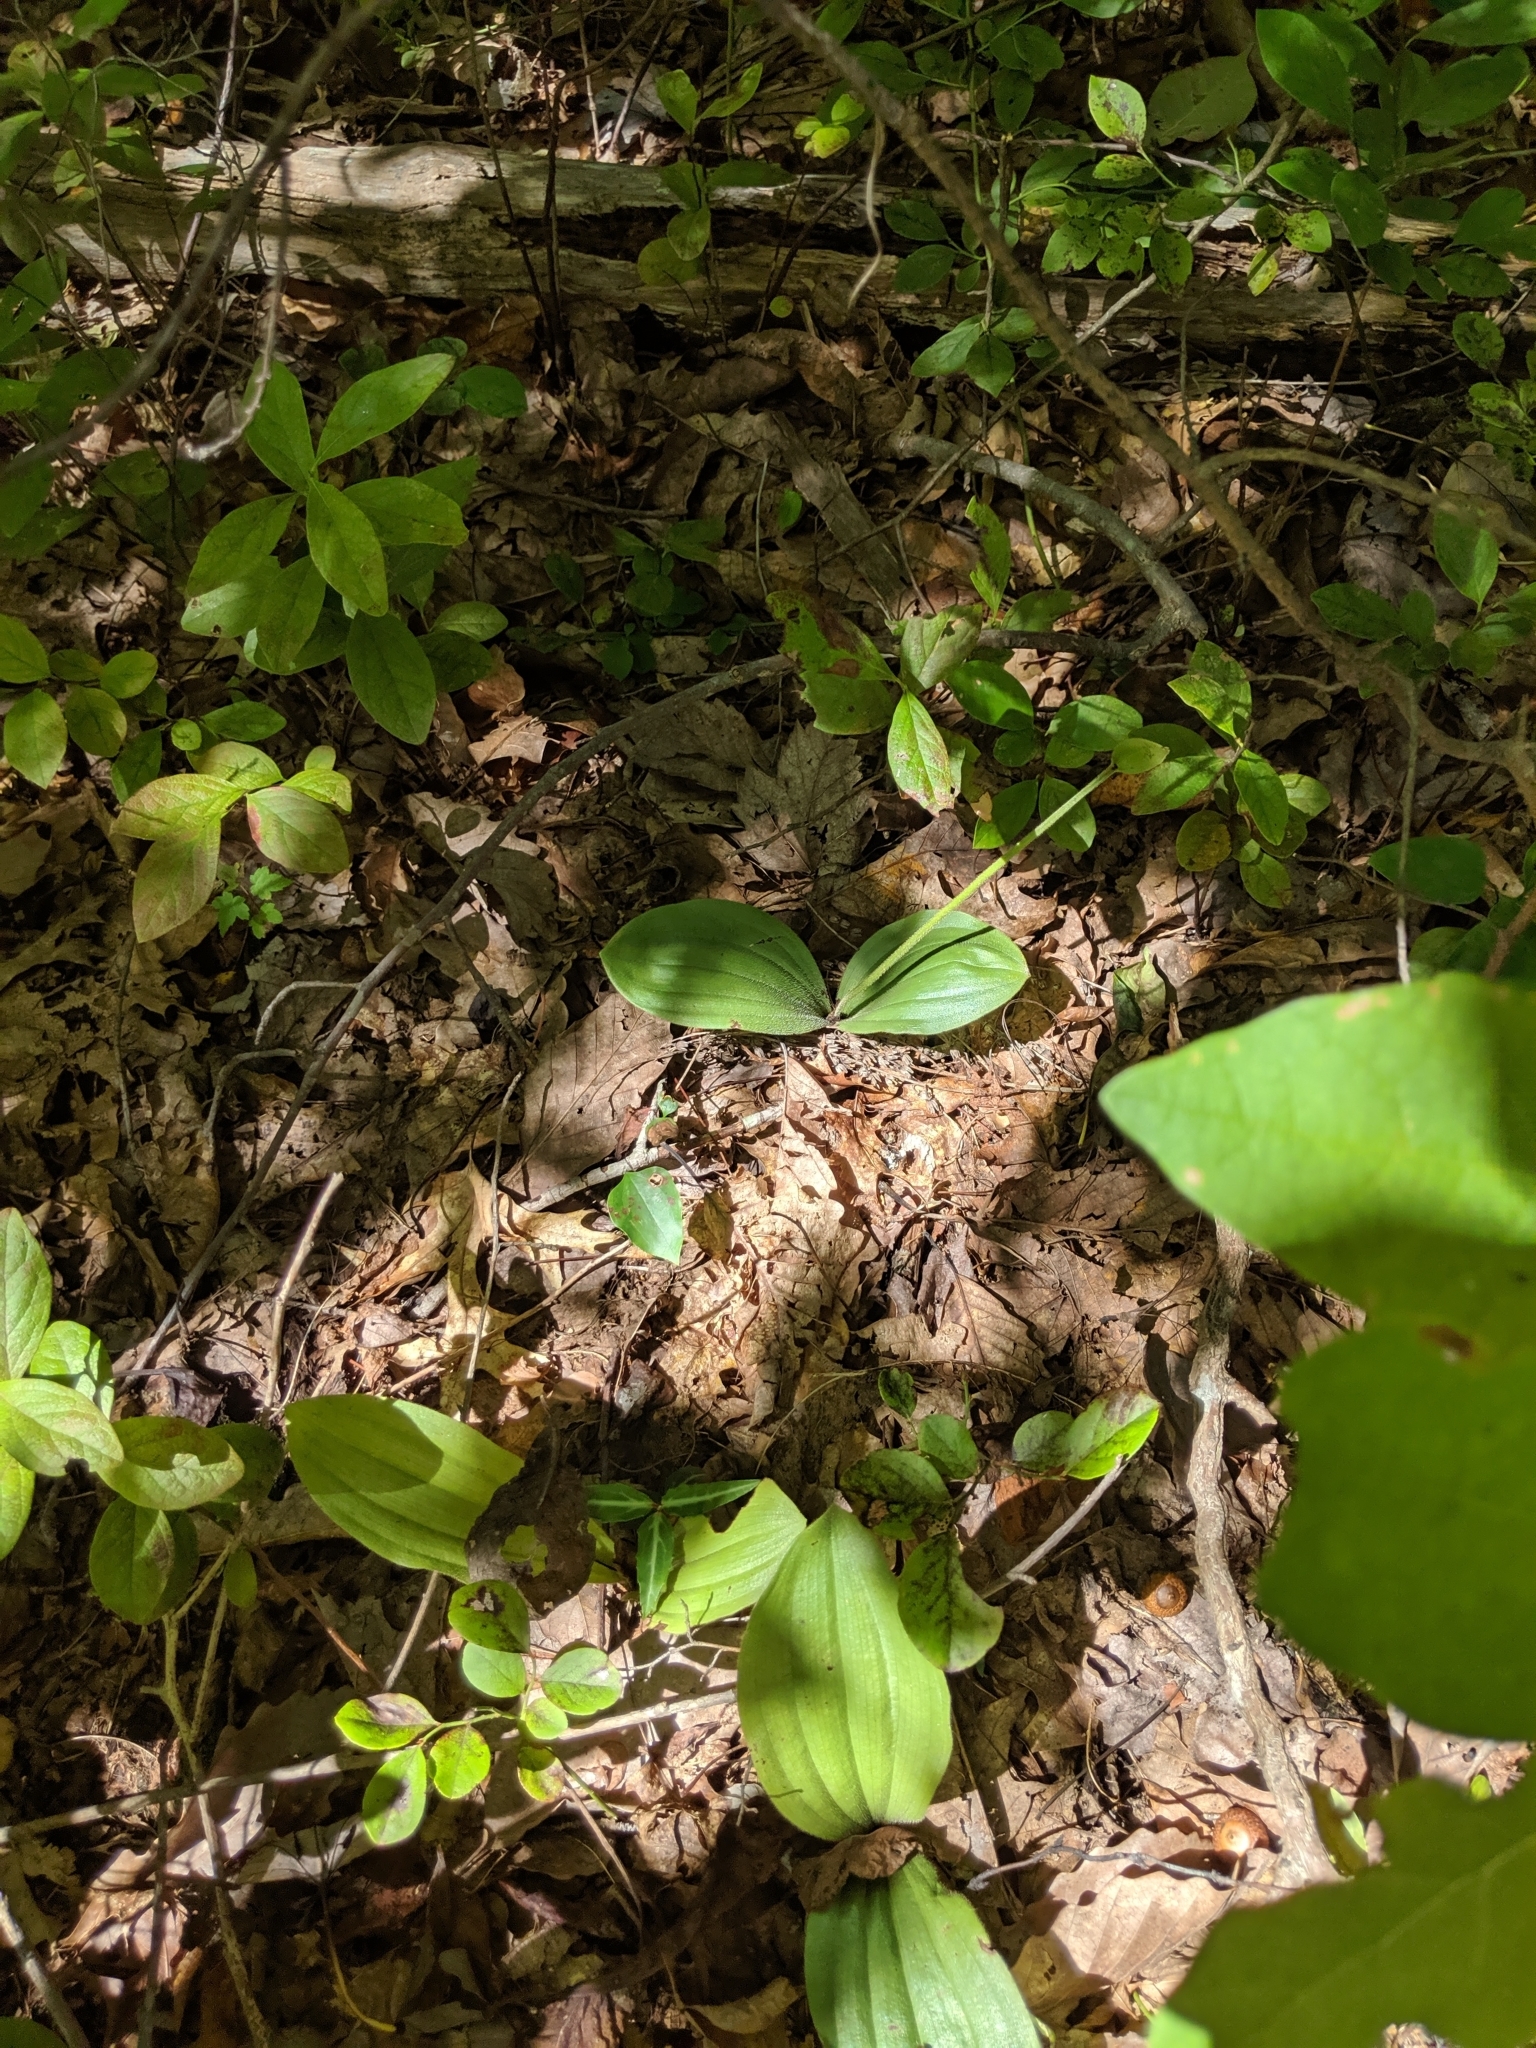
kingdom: Plantae
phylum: Tracheophyta
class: Liliopsida
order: Asparagales
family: Orchidaceae
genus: Cypripedium
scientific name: Cypripedium acaule
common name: Pink lady's-slipper
